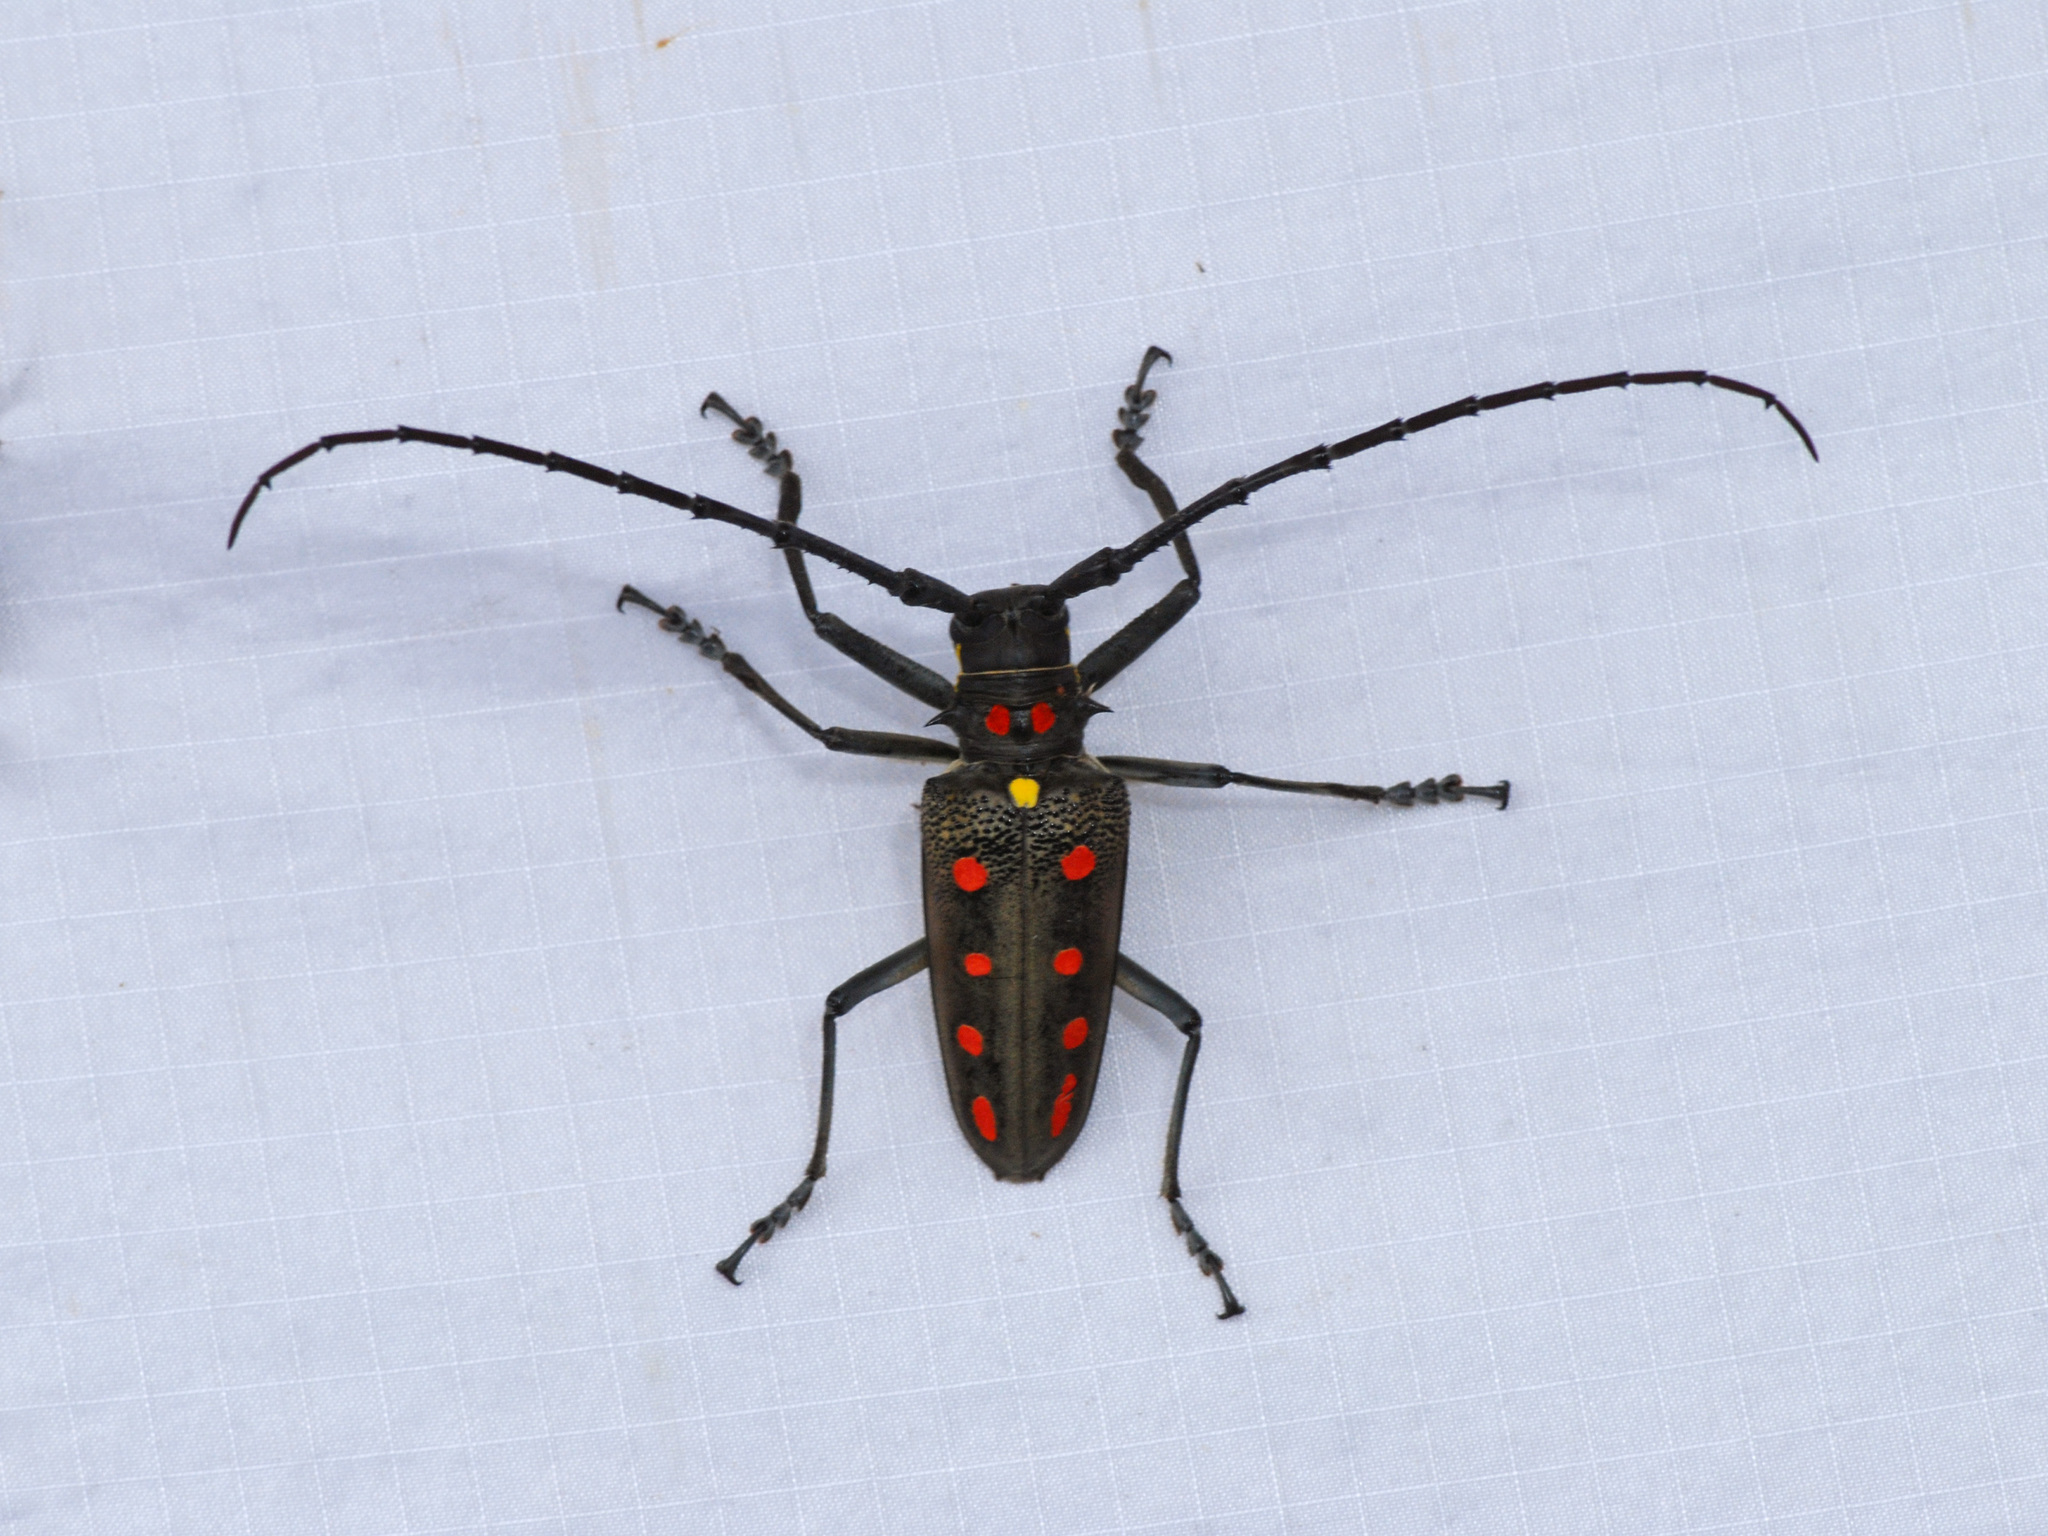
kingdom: Animalia
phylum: Arthropoda
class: Insecta
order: Coleoptera
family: Cerambycidae
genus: Batocera
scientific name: Batocera parryi
